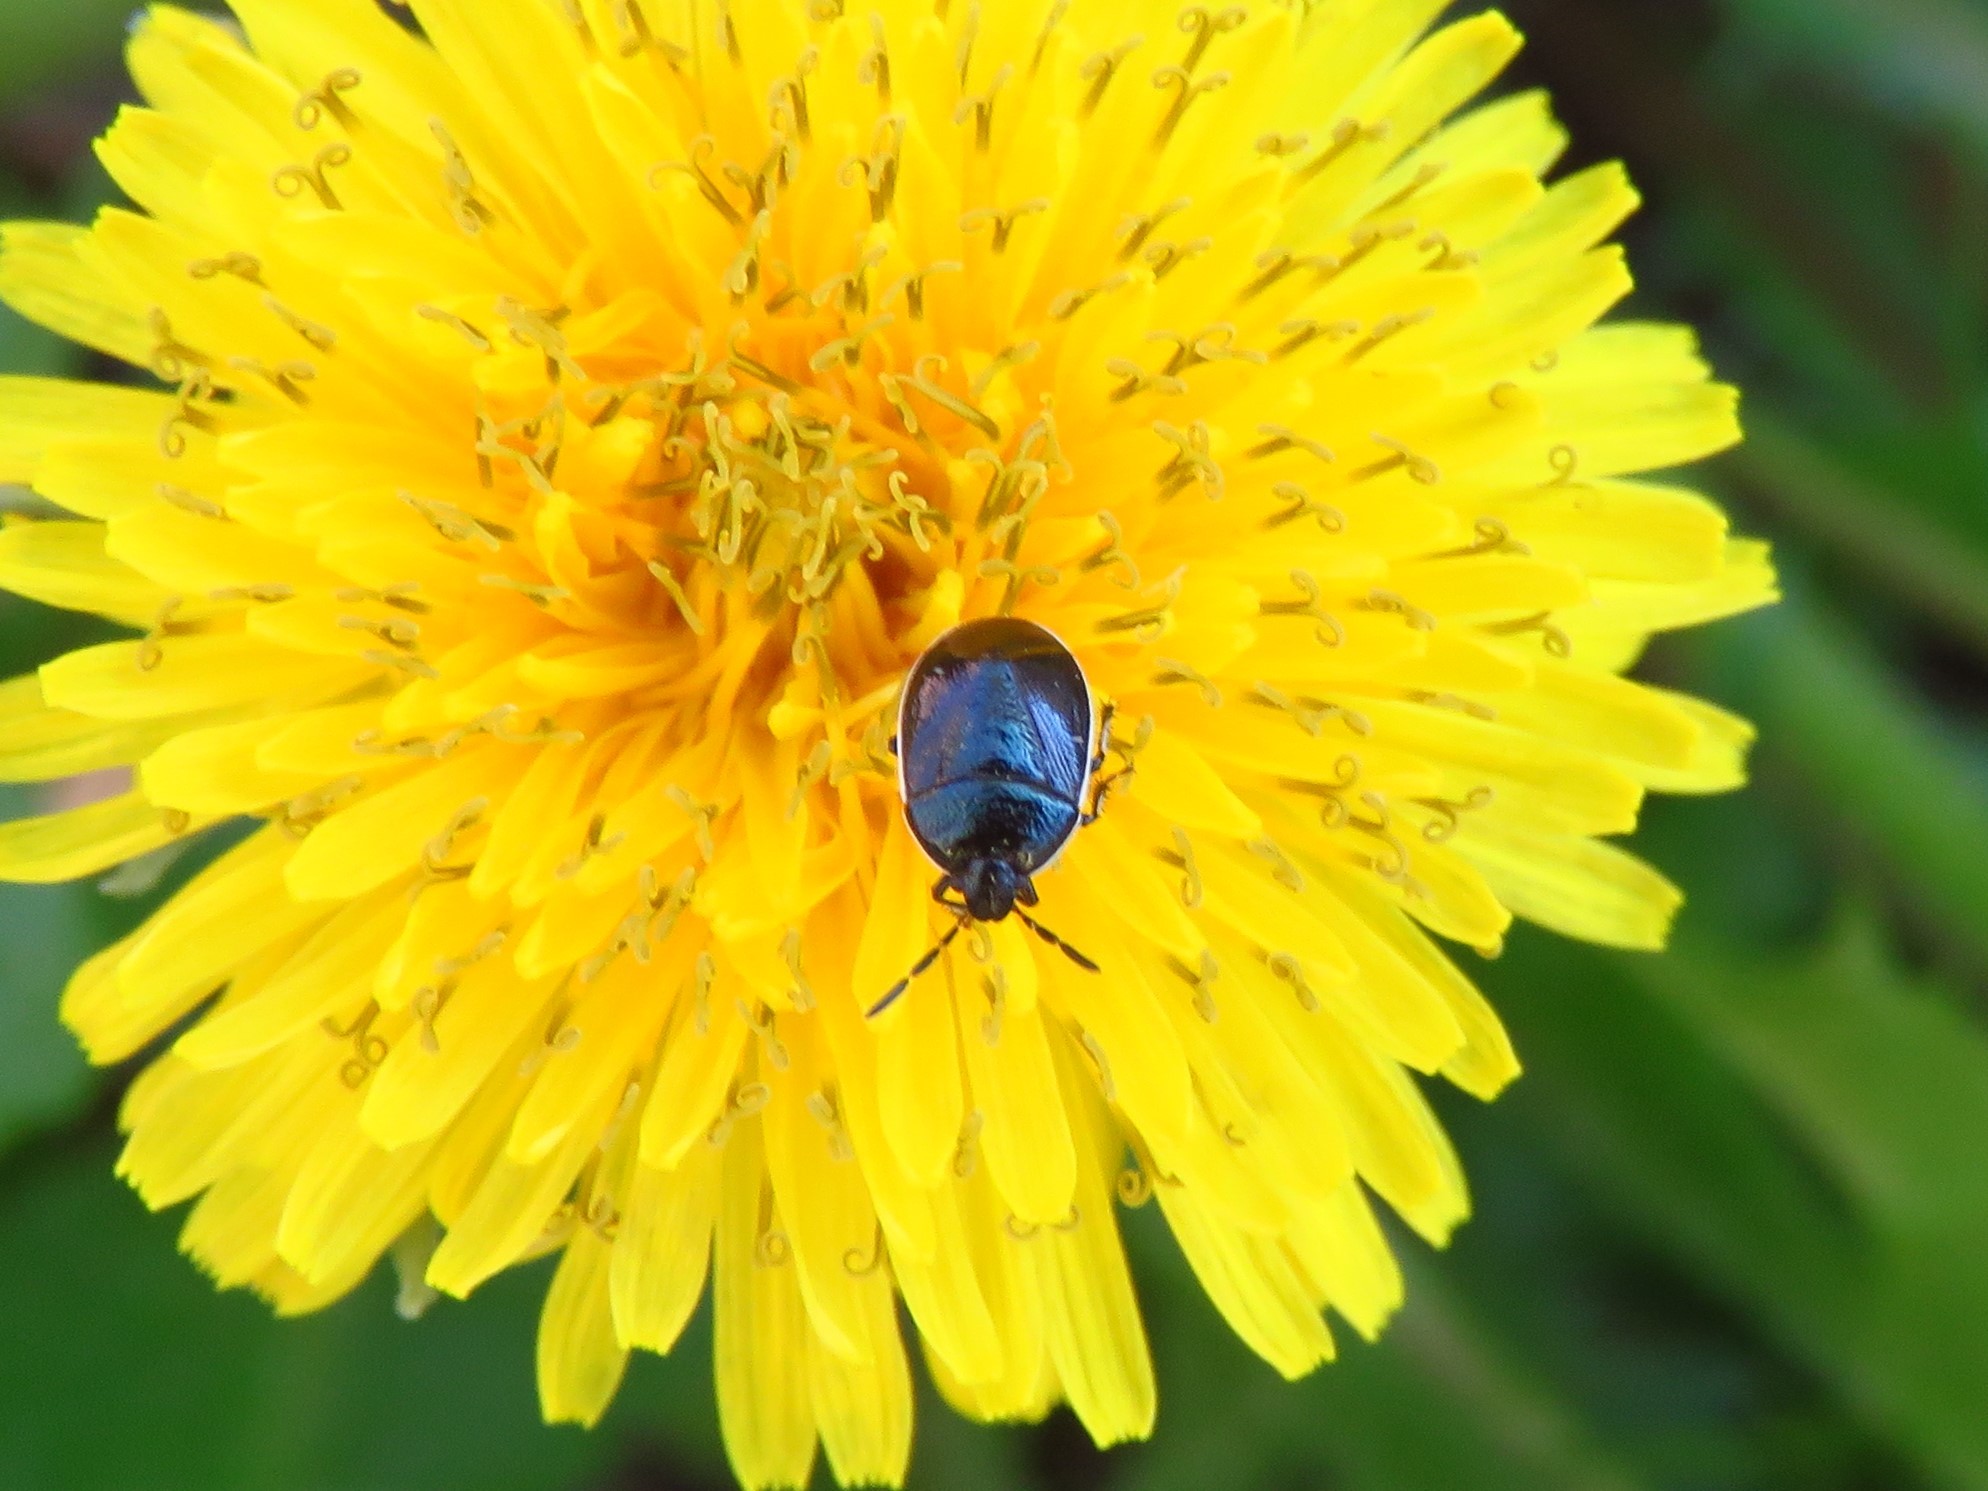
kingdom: Animalia
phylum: Arthropoda
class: Insecta
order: Hemiptera
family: Cydnidae
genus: Sehirus
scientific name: Sehirus cinctus
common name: White-margined burrower bug
